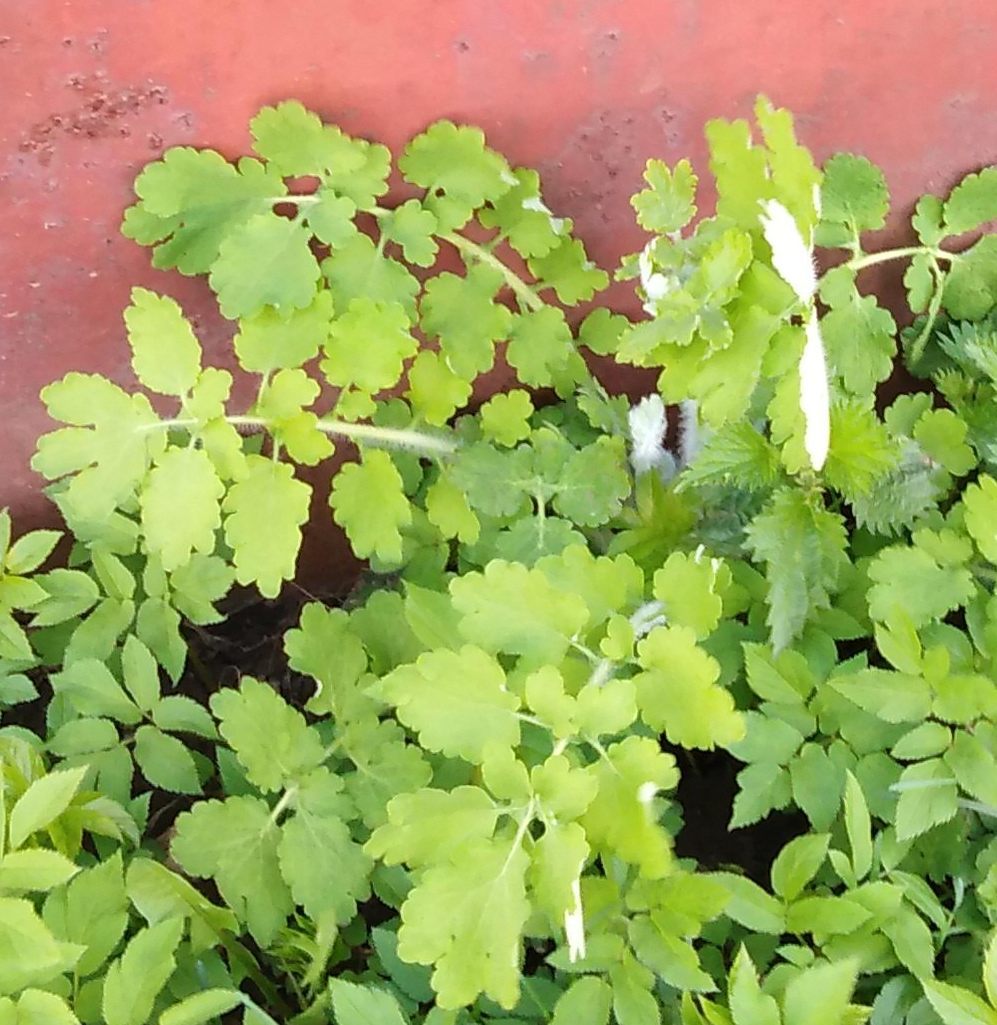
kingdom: Plantae
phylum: Tracheophyta
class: Magnoliopsida
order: Ranunculales
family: Papaveraceae
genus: Chelidonium
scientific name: Chelidonium majus
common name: Greater celandine
